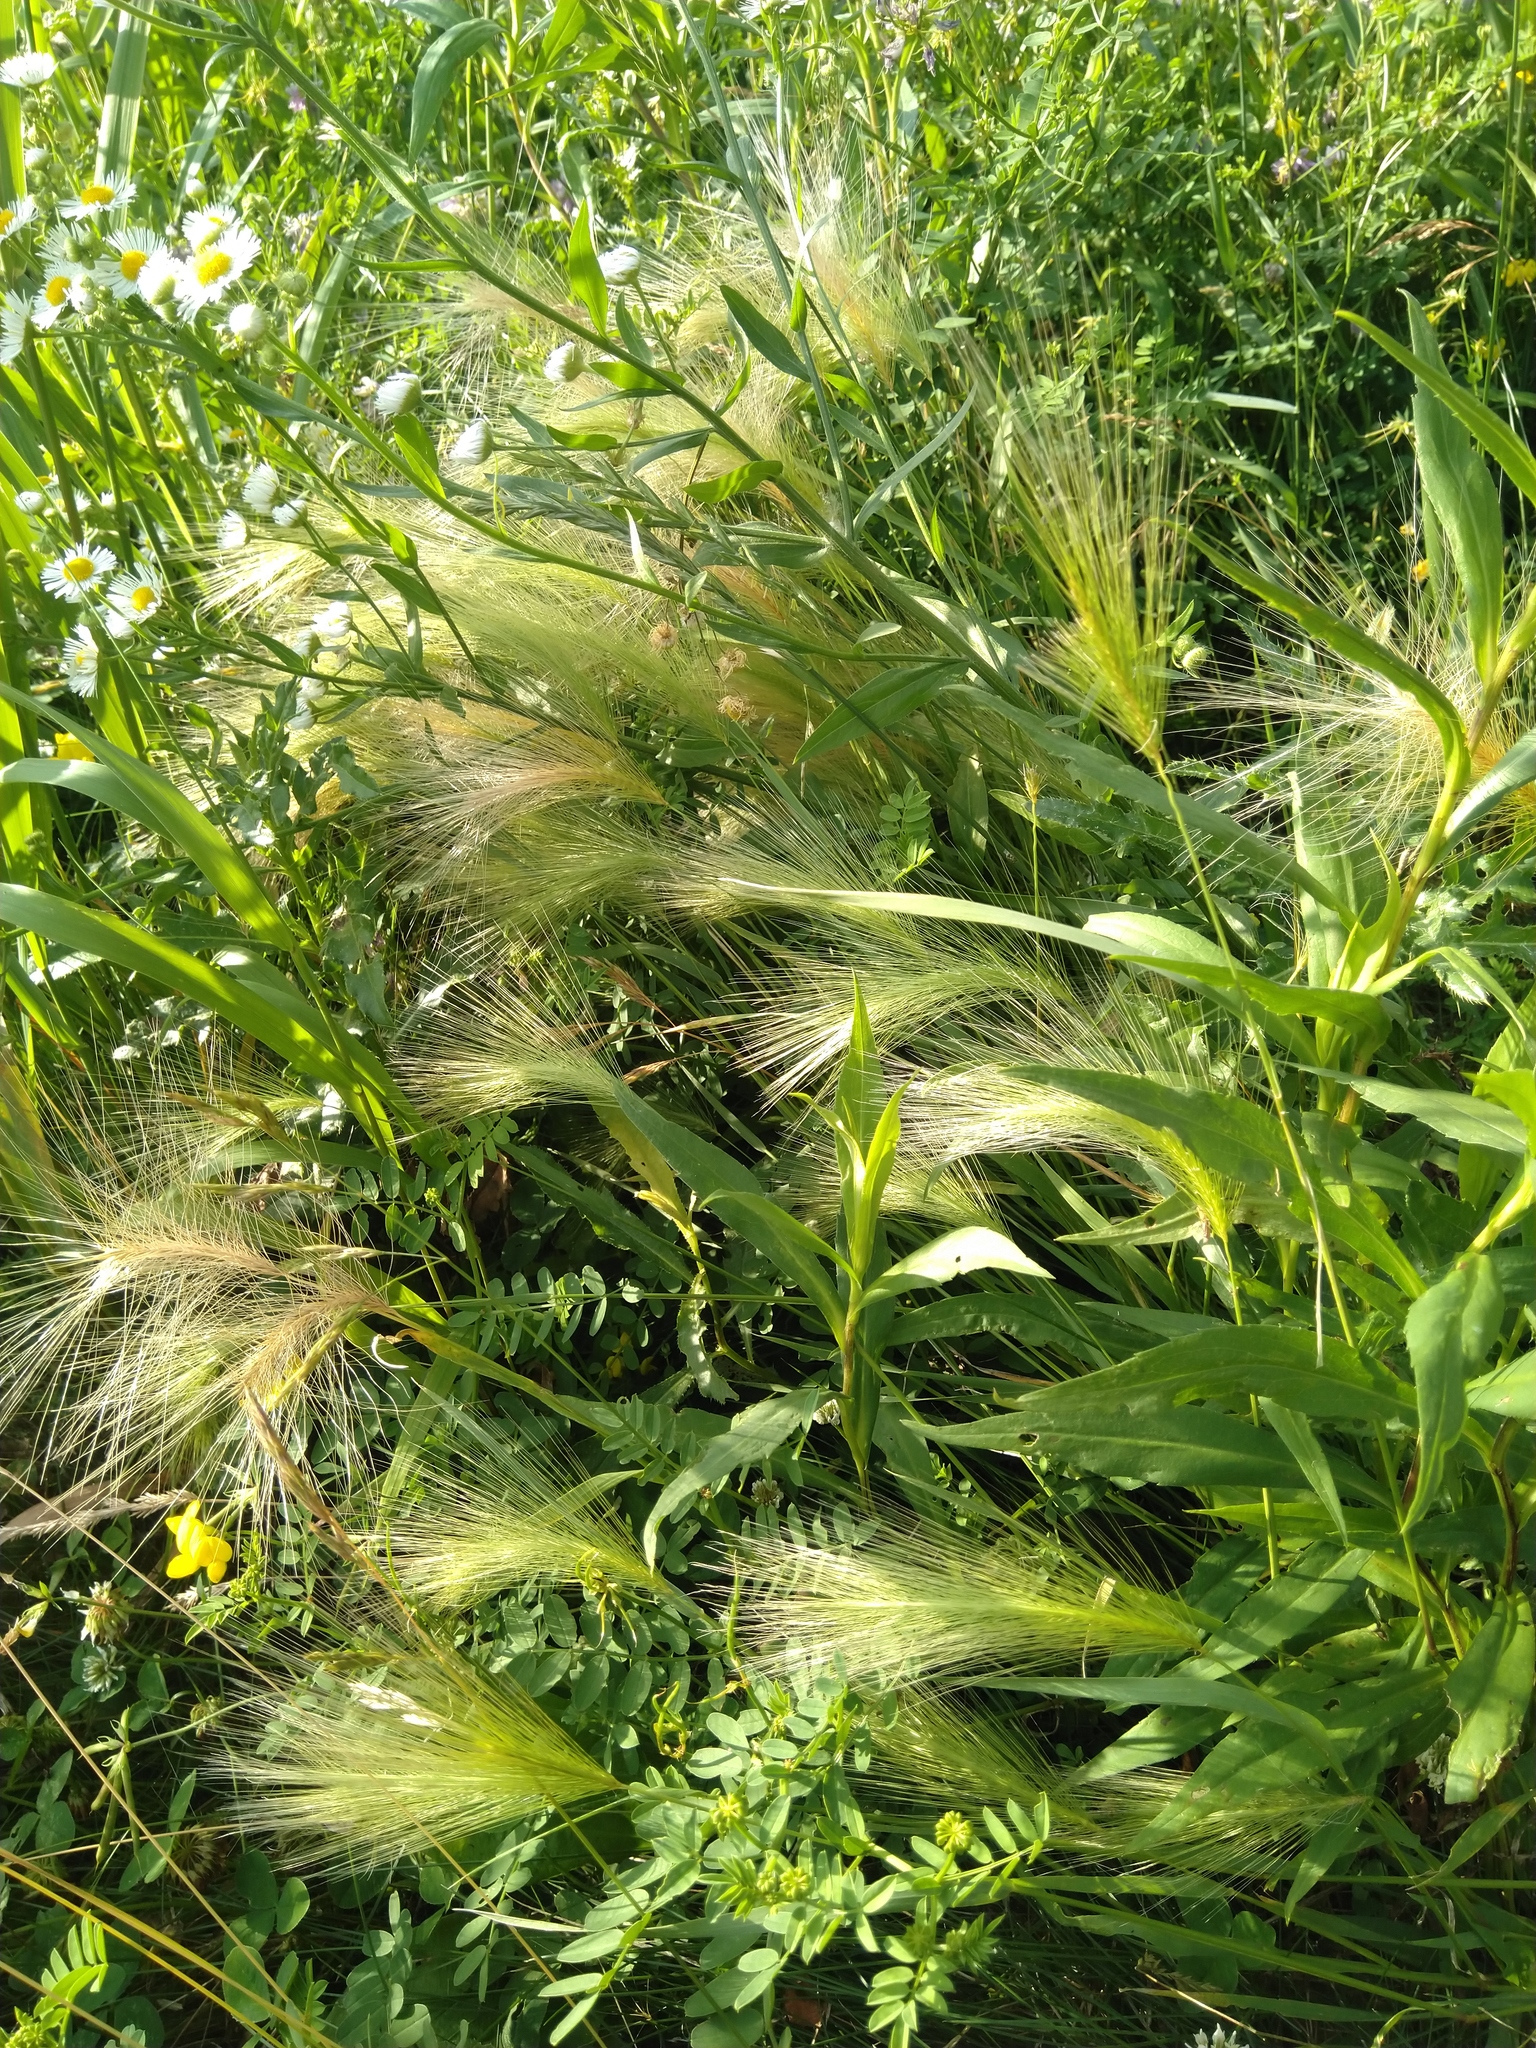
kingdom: Plantae
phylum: Tracheophyta
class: Liliopsida
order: Poales
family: Poaceae
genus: Hordeum
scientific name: Hordeum jubatum
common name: Foxtail barley
